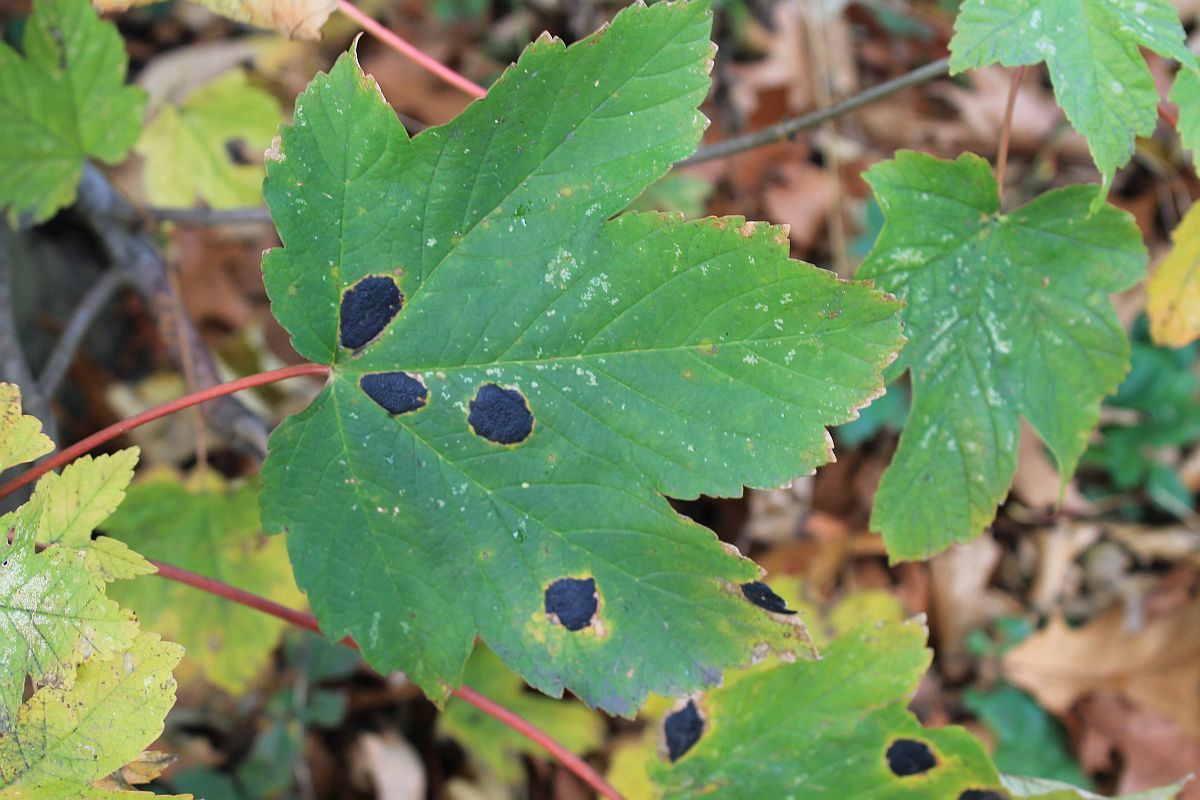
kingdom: Fungi
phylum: Ascomycota
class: Leotiomycetes
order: Rhytismatales
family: Rhytismataceae
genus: Rhytisma
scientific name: Rhytisma acerinum
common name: European tar spot
